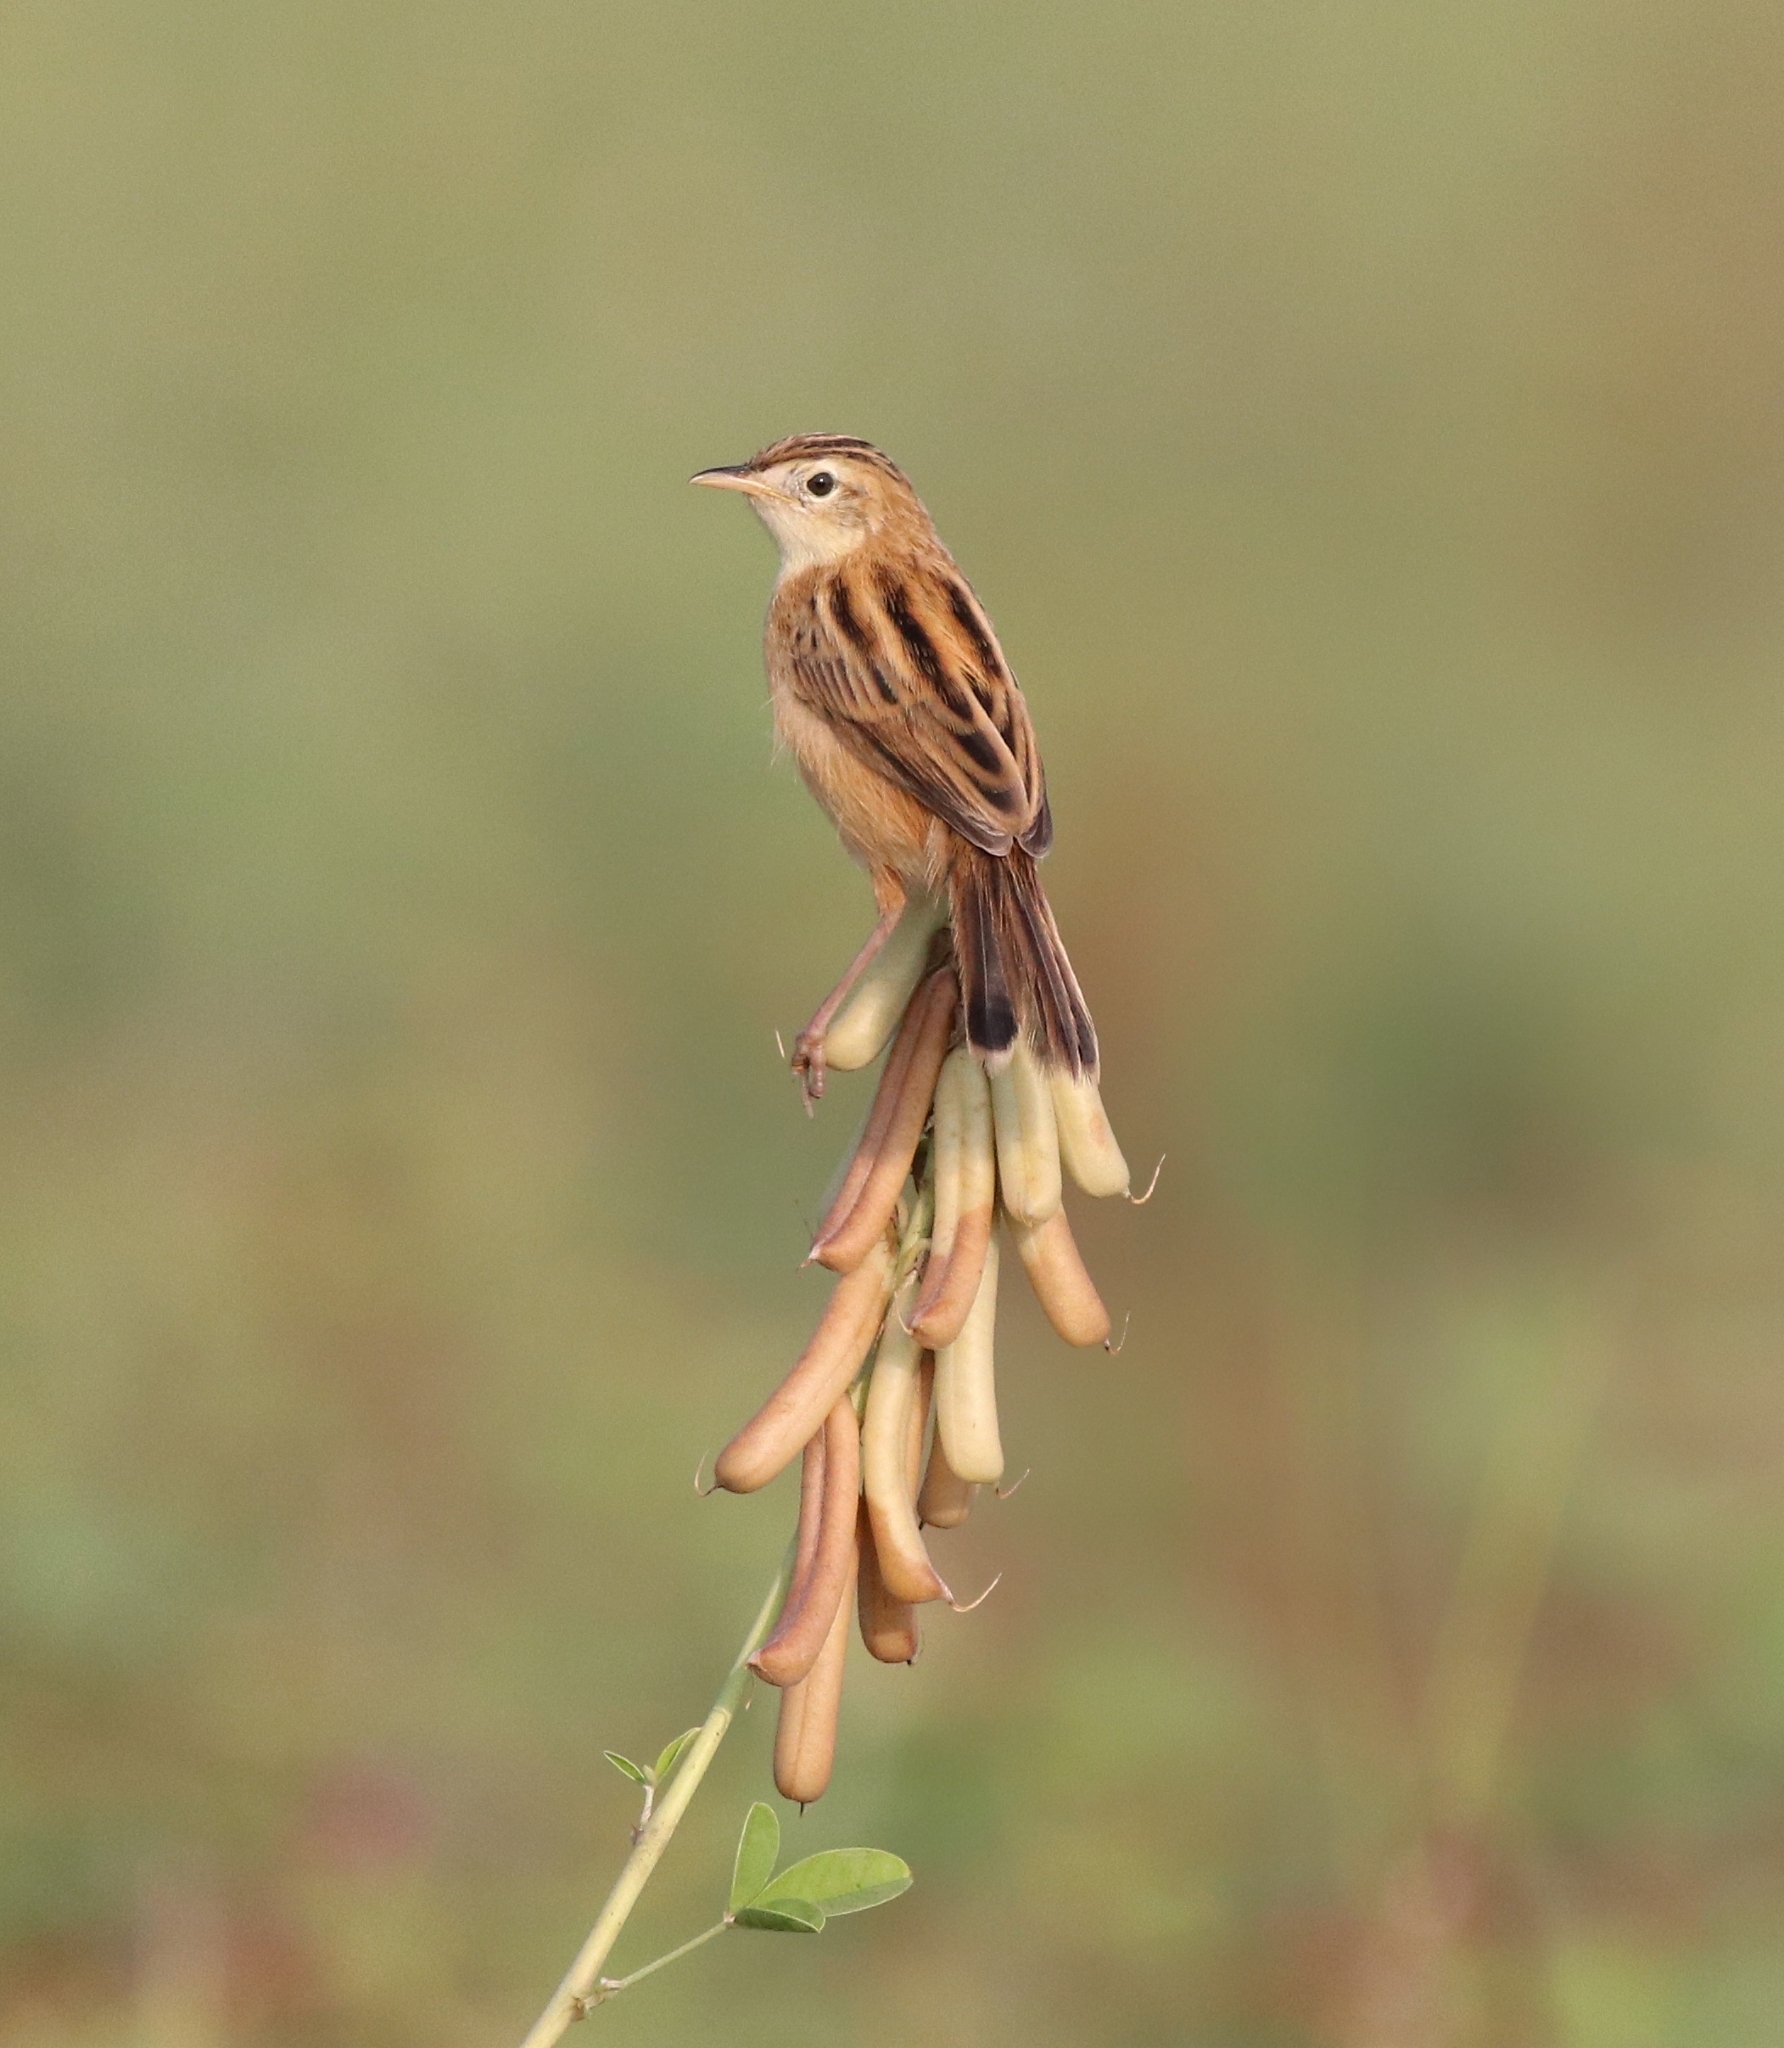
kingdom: Animalia
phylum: Chordata
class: Aves
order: Passeriformes
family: Cisticolidae
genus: Cisticola
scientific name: Cisticola juncidis
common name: Zitting cisticola
